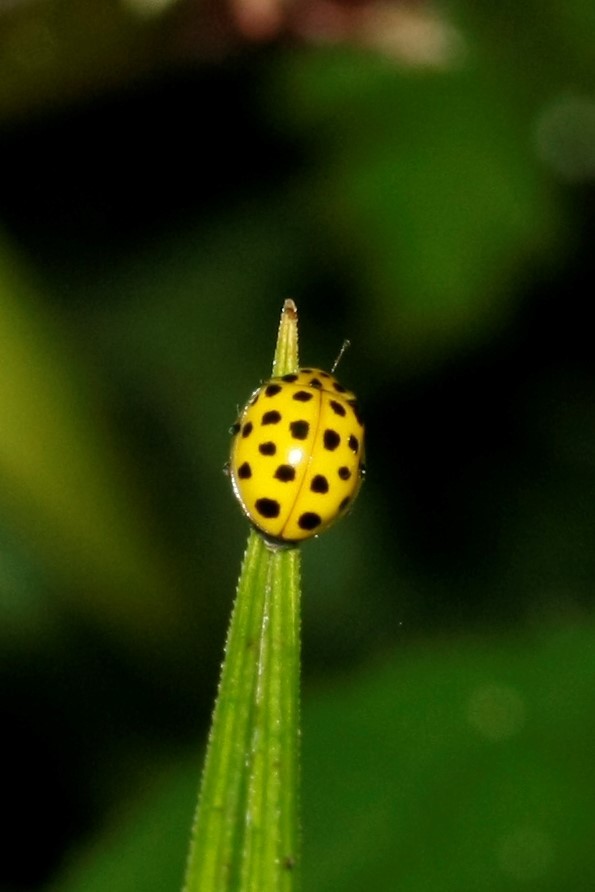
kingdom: Animalia
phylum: Arthropoda
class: Insecta
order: Coleoptera
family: Coccinellidae
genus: Psyllobora
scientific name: Psyllobora vigintiduopunctata
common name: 22-spot ladybird
